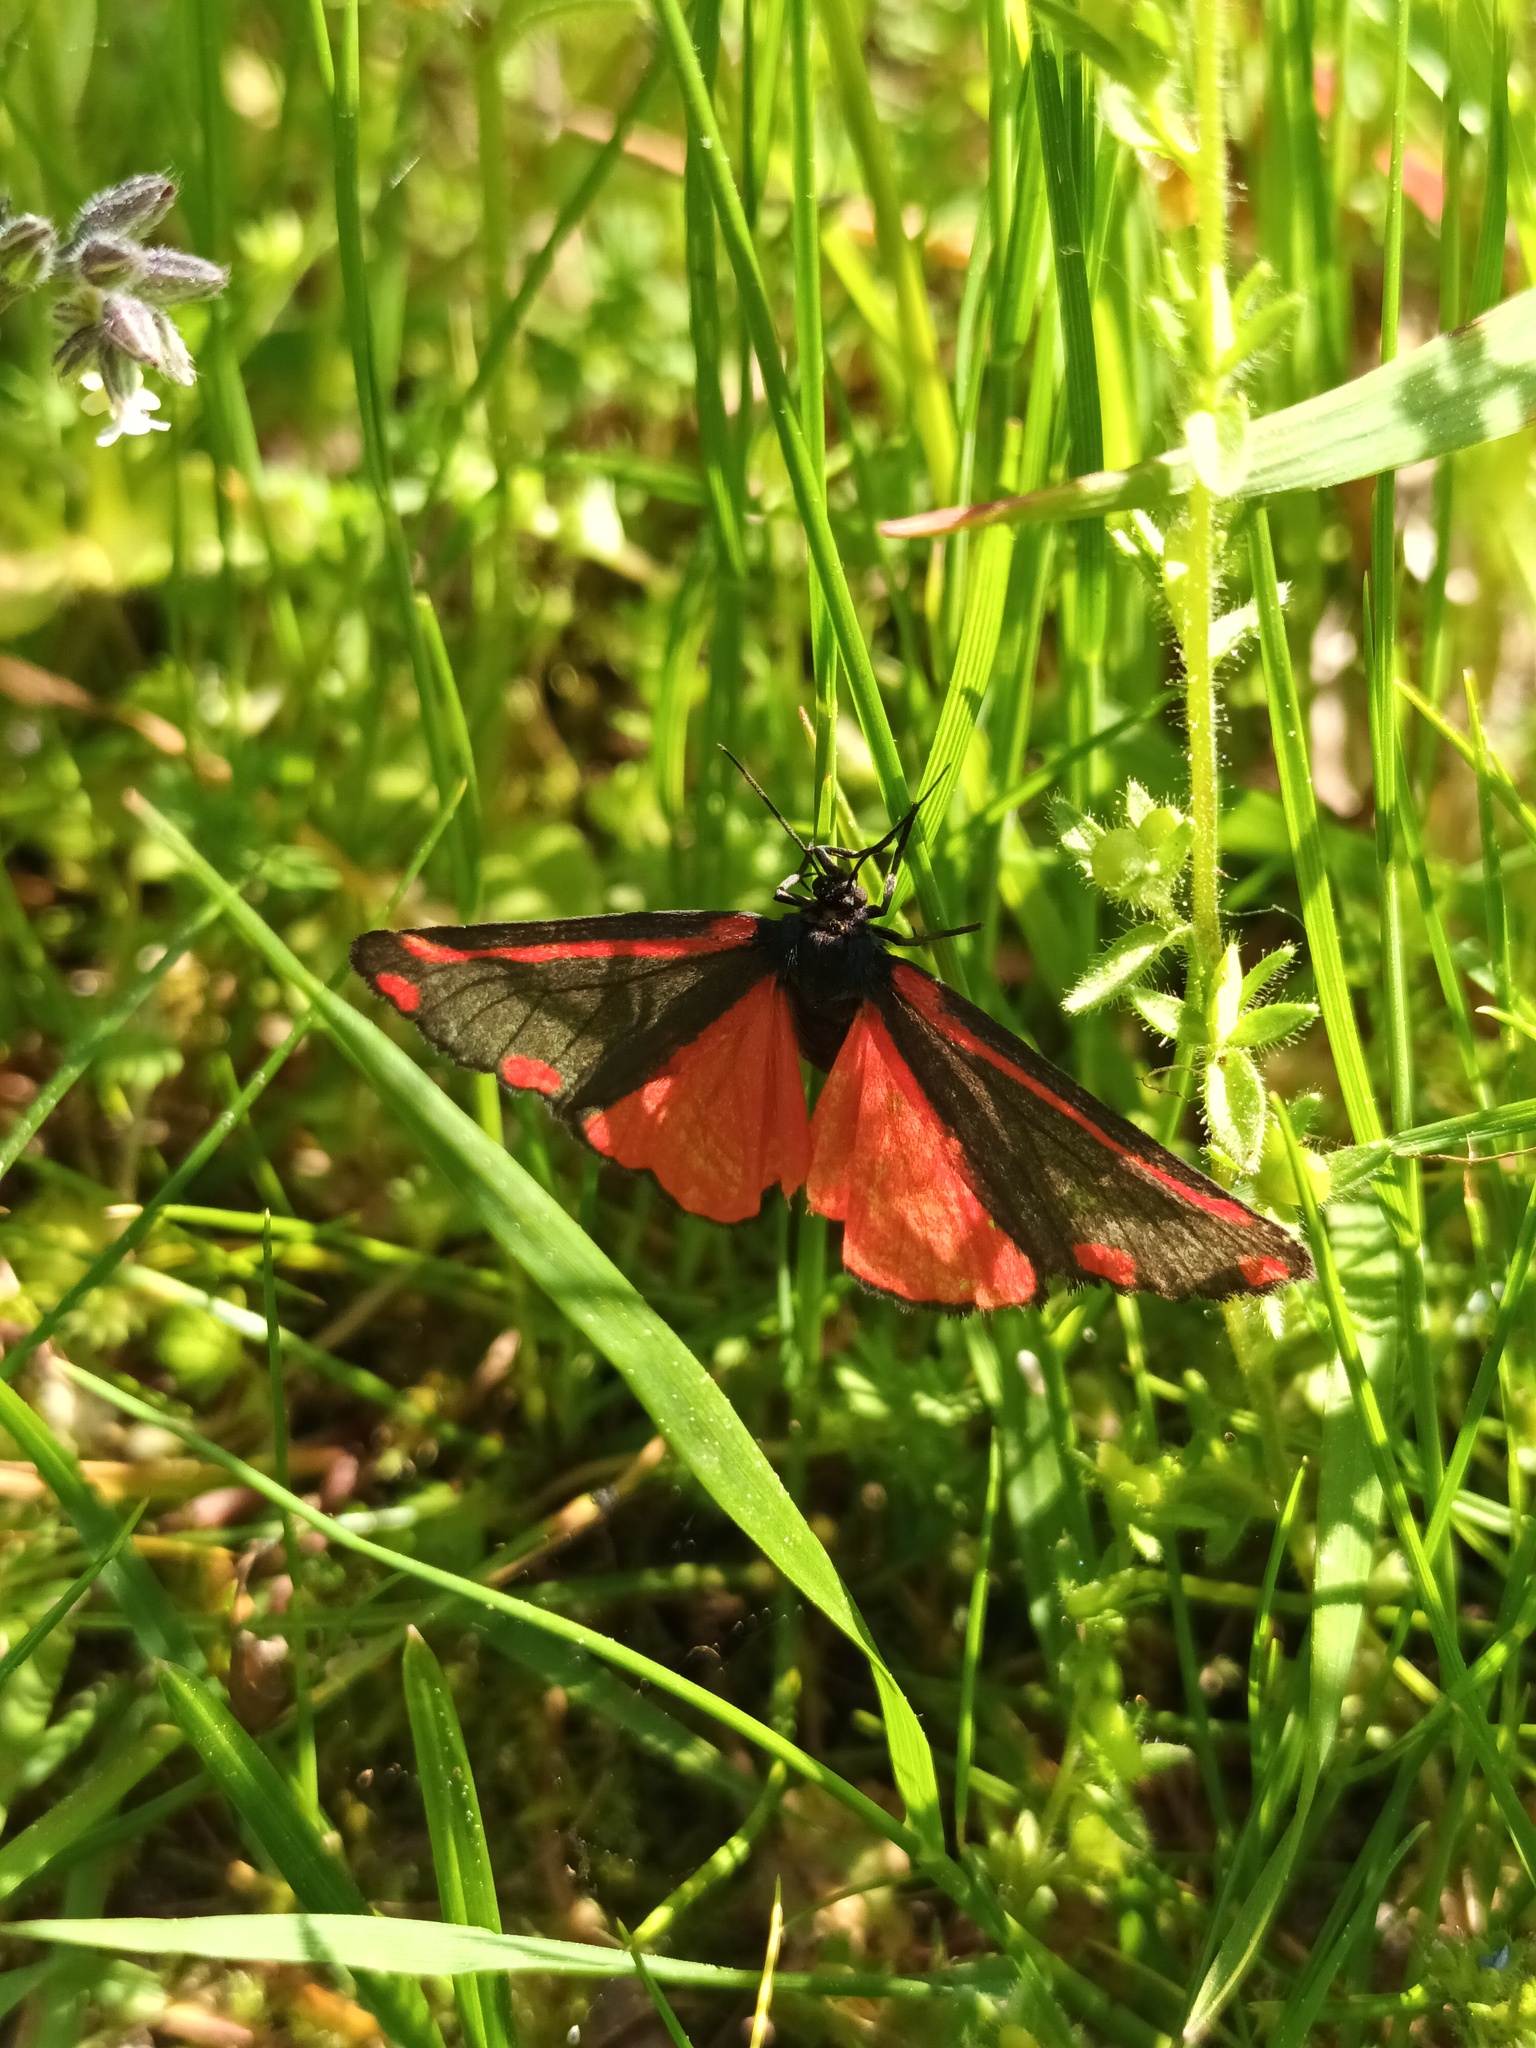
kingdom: Animalia
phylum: Arthropoda
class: Insecta
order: Lepidoptera
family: Erebidae
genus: Tyria
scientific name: Tyria jacobaeae
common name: Cinnabar
